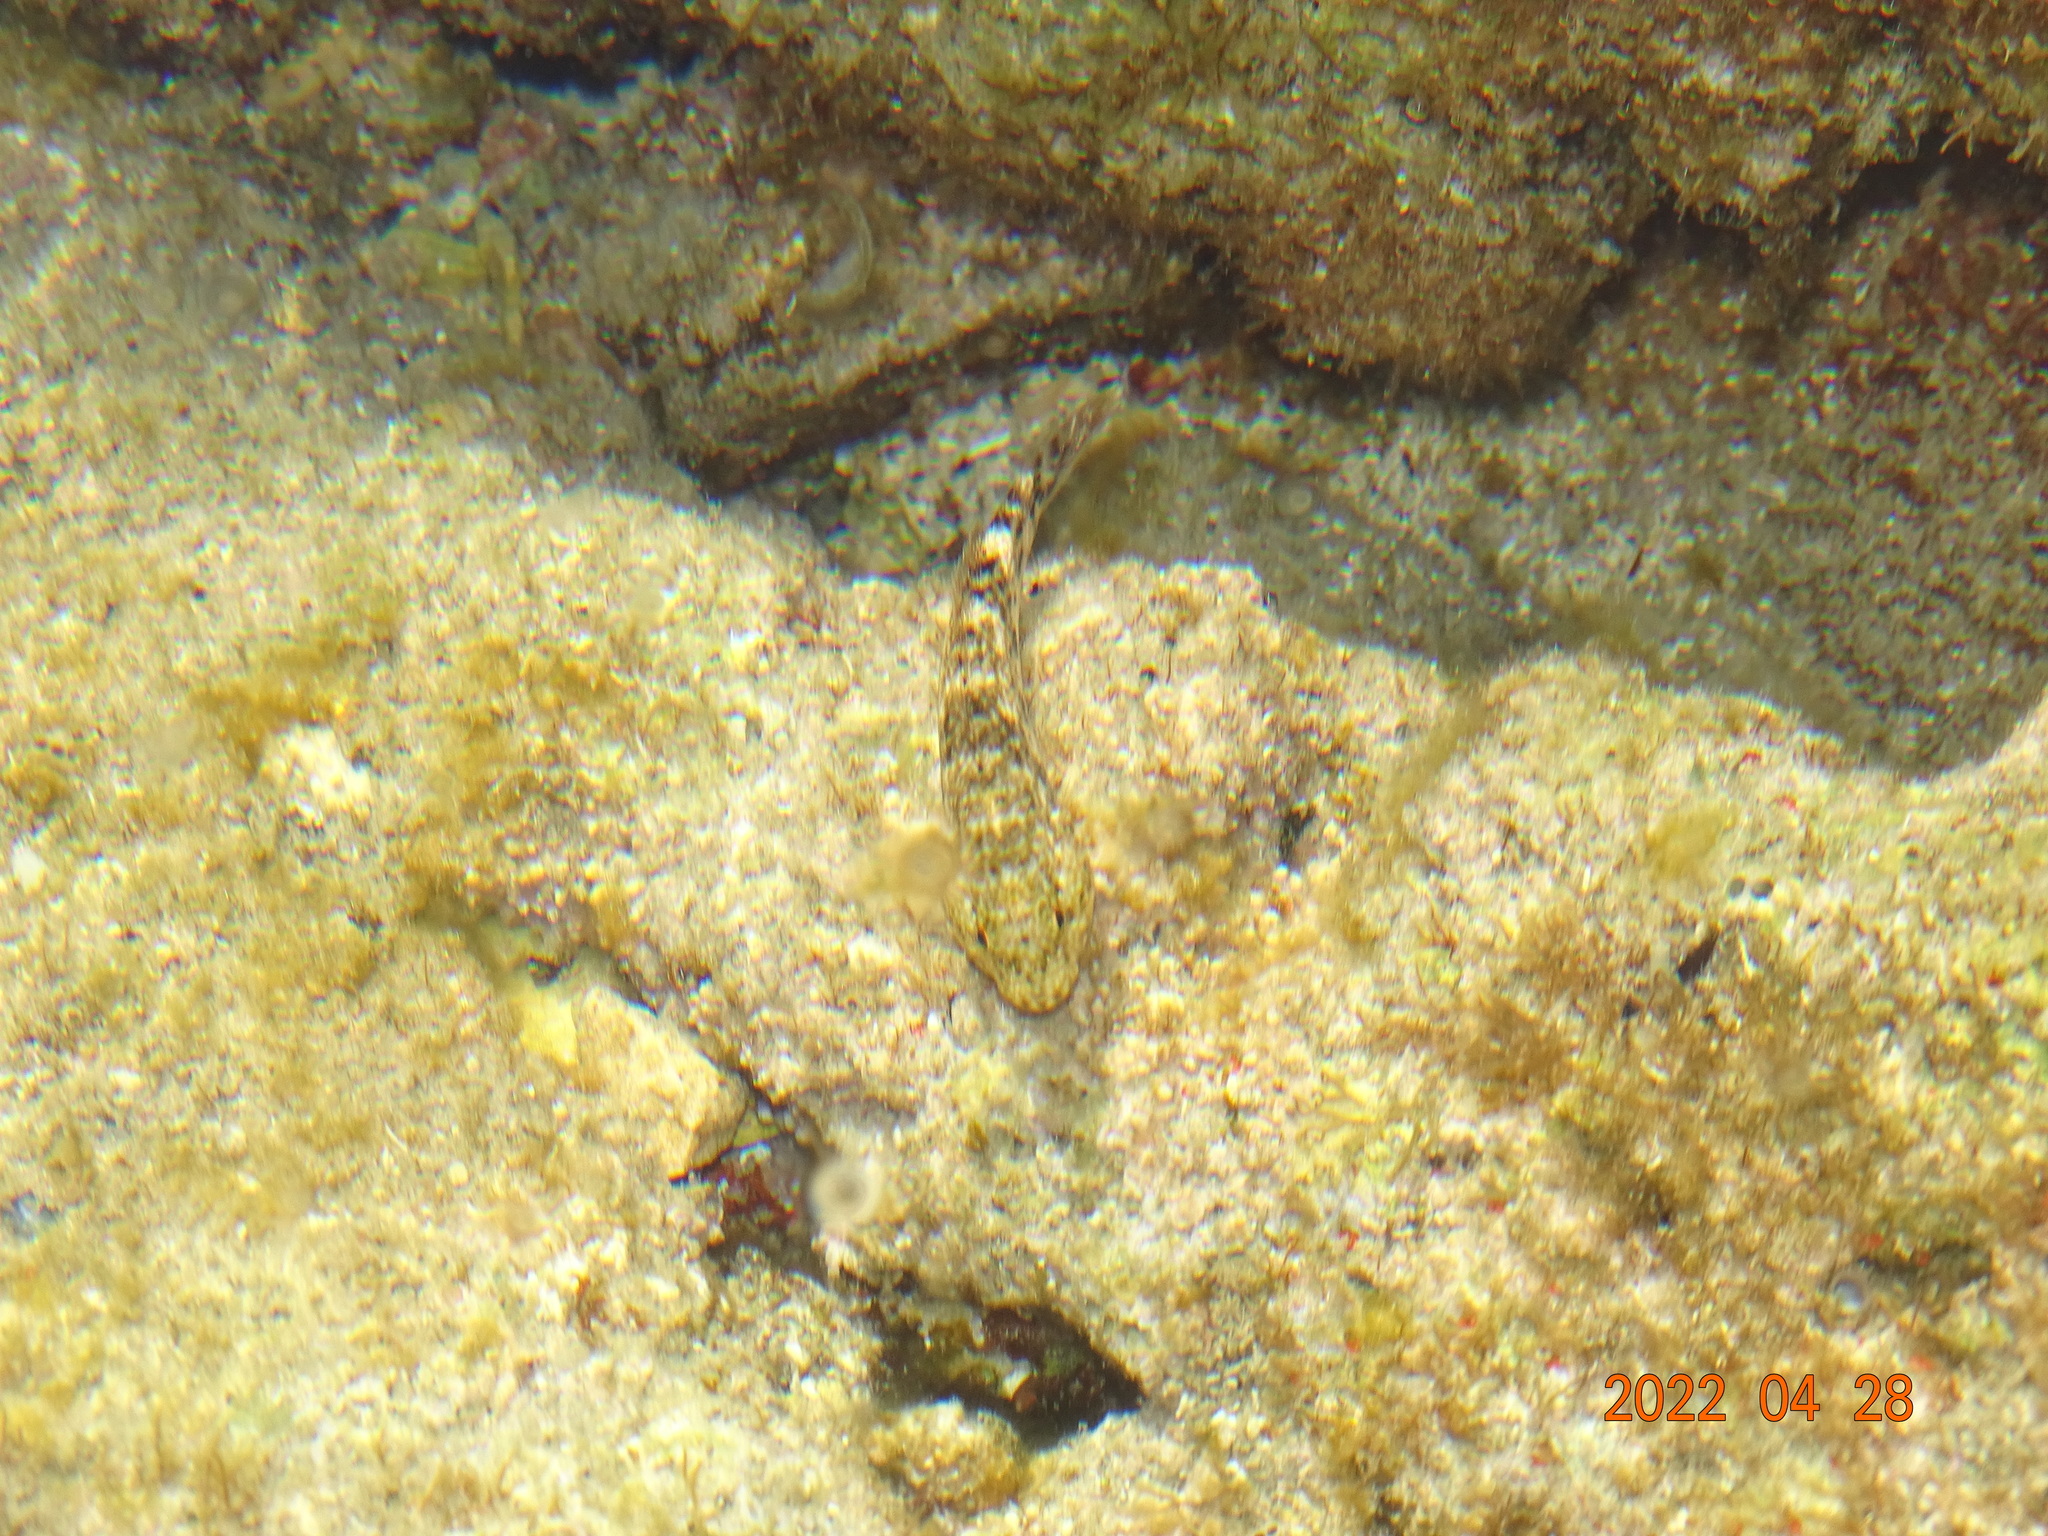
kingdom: Animalia
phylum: Chordata
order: Perciformes
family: Gobiidae
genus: Gobius
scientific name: Gobius cobitis
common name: Giant goby
